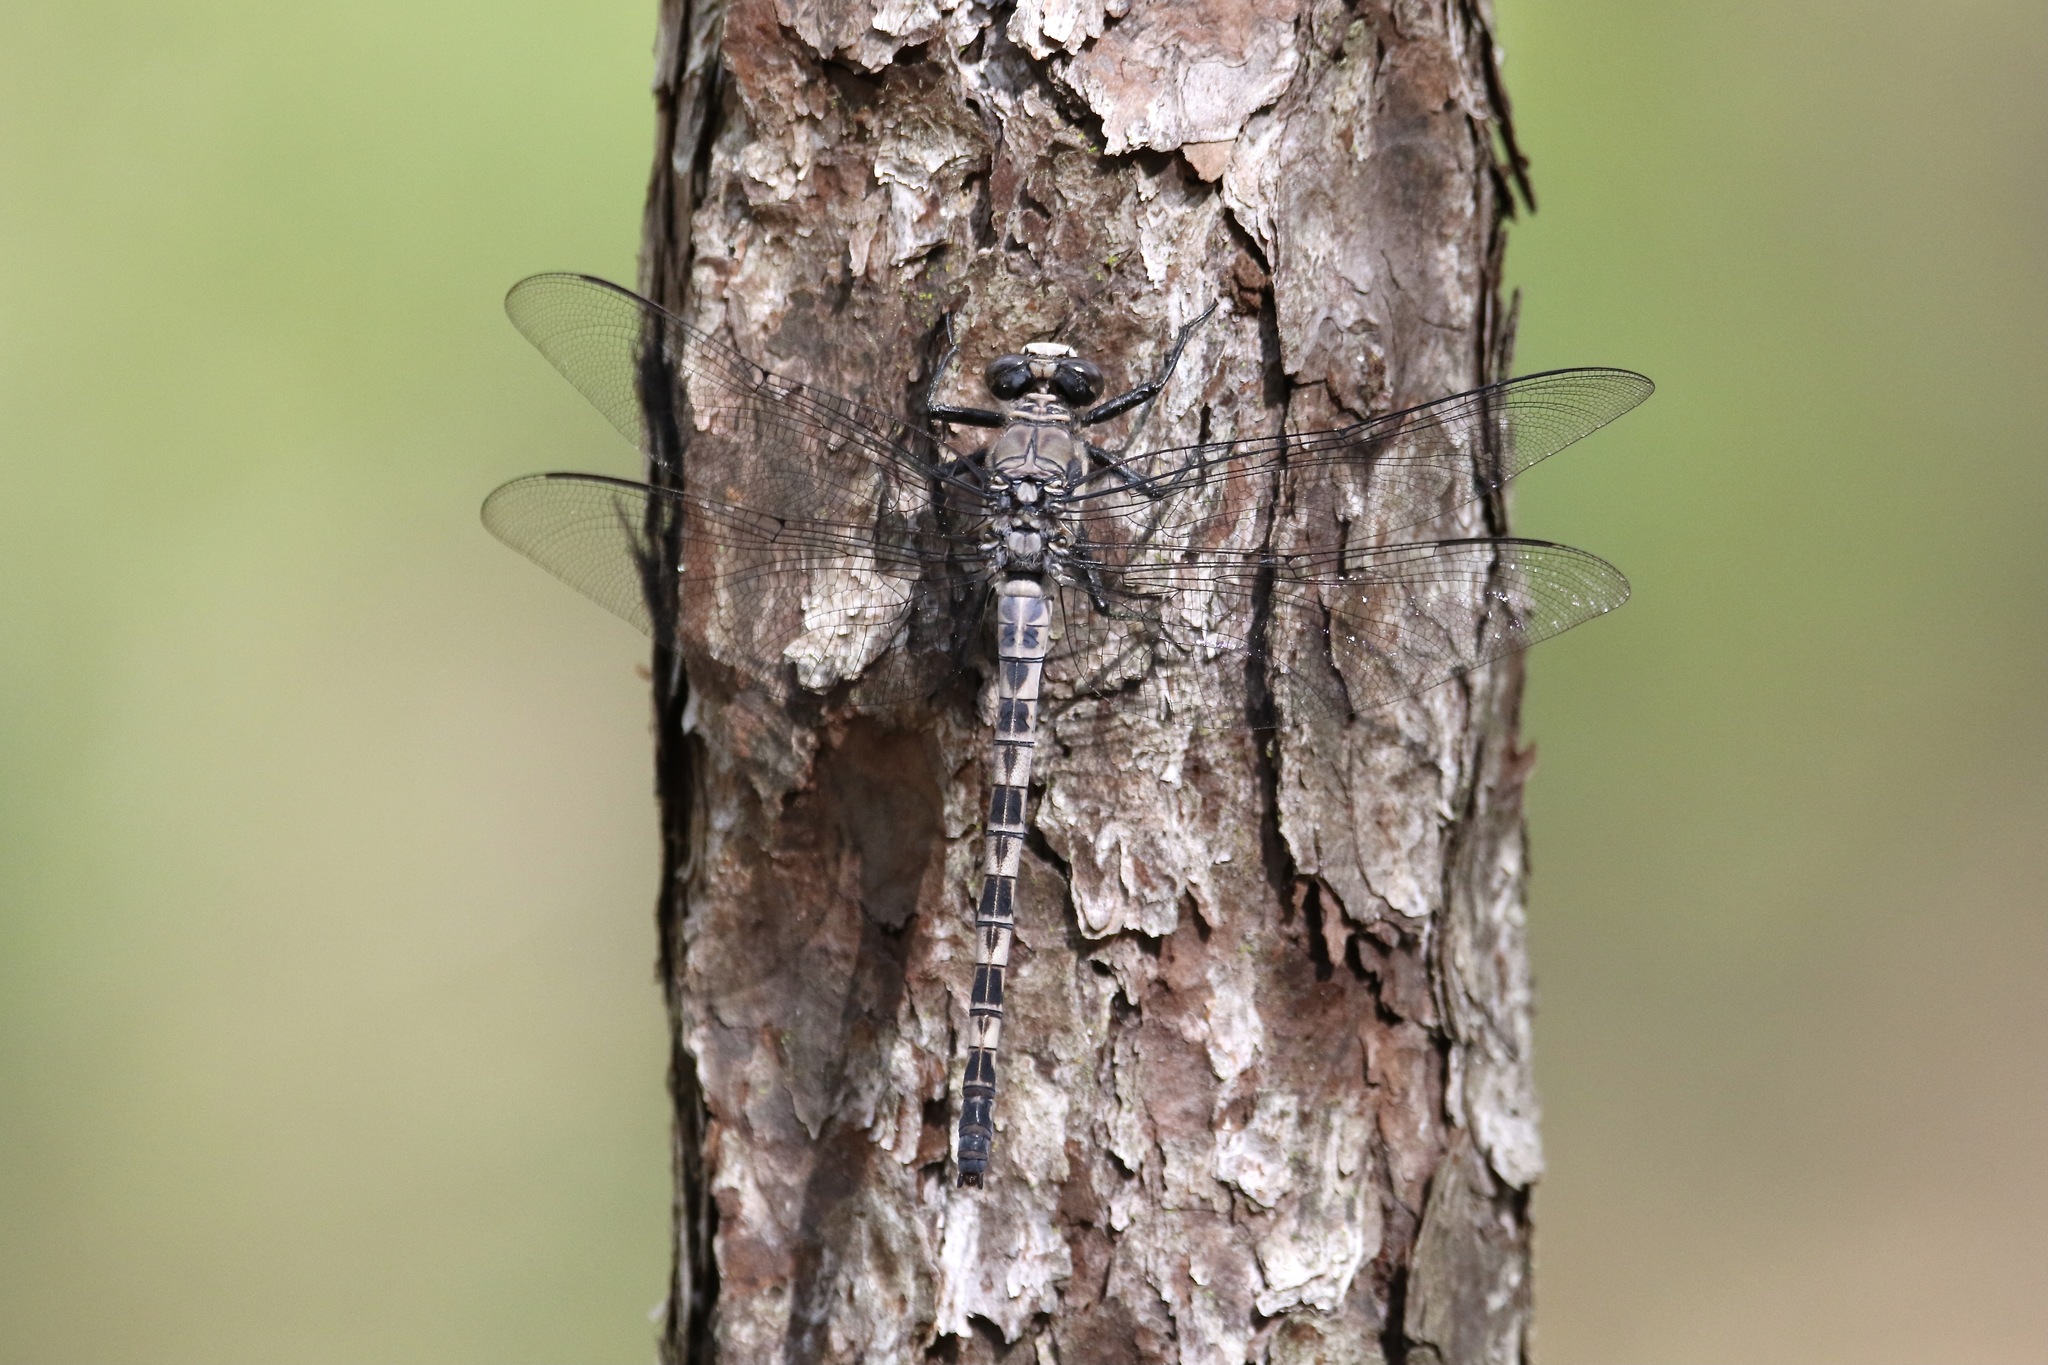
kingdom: Animalia
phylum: Arthropoda
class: Insecta
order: Odonata
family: Petaluridae
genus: Tachopteryx
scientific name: Tachopteryx thoreyi
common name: Gray petaltail
